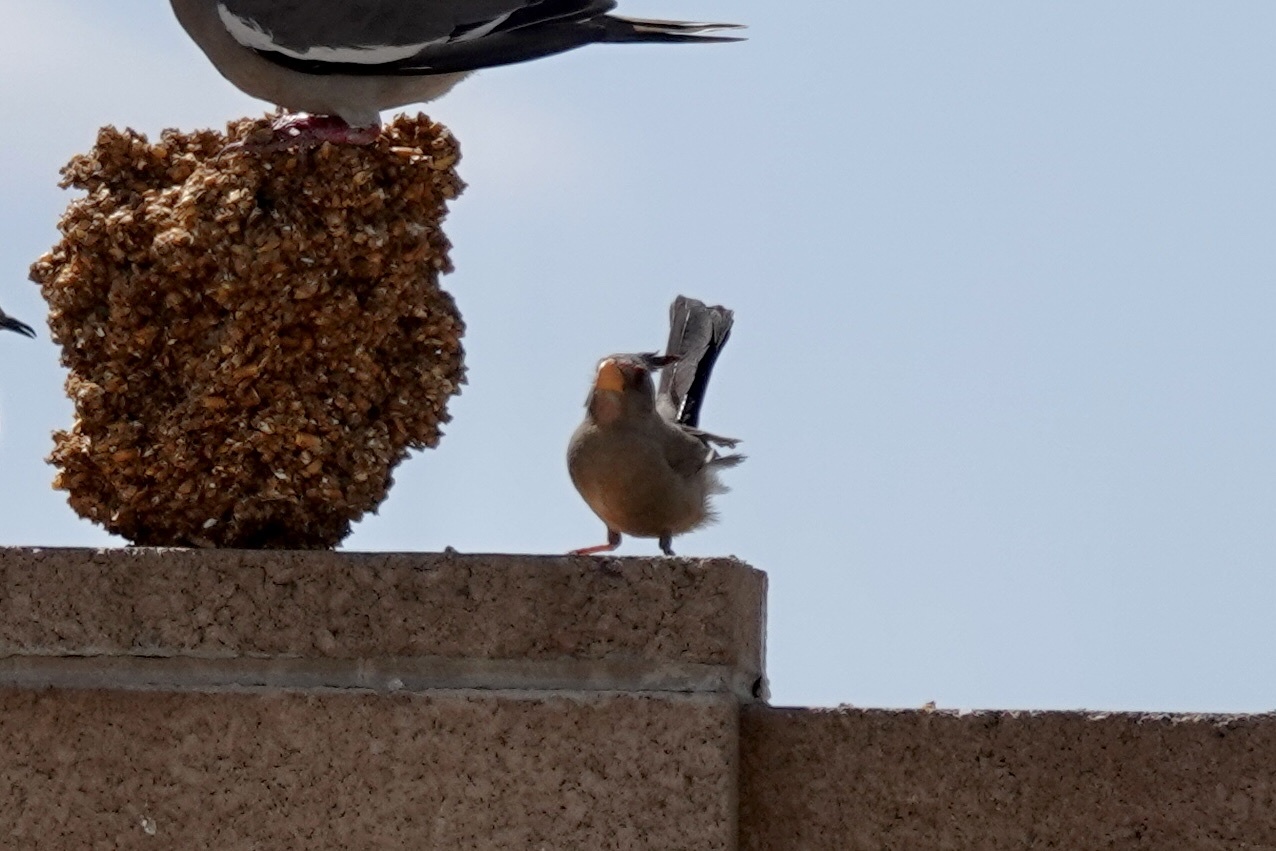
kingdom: Animalia
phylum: Chordata
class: Aves
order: Passeriformes
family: Cardinalidae
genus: Cardinalis
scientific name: Cardinalis sinuatus
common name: Pyrrhuloxia
